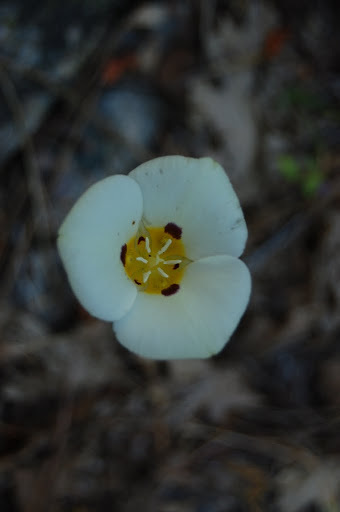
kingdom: Plantae
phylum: Tracheophyta
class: Liliopsida
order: Liliales
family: Liliaceae
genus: Calochortus
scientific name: Calochortus leichtlinii
